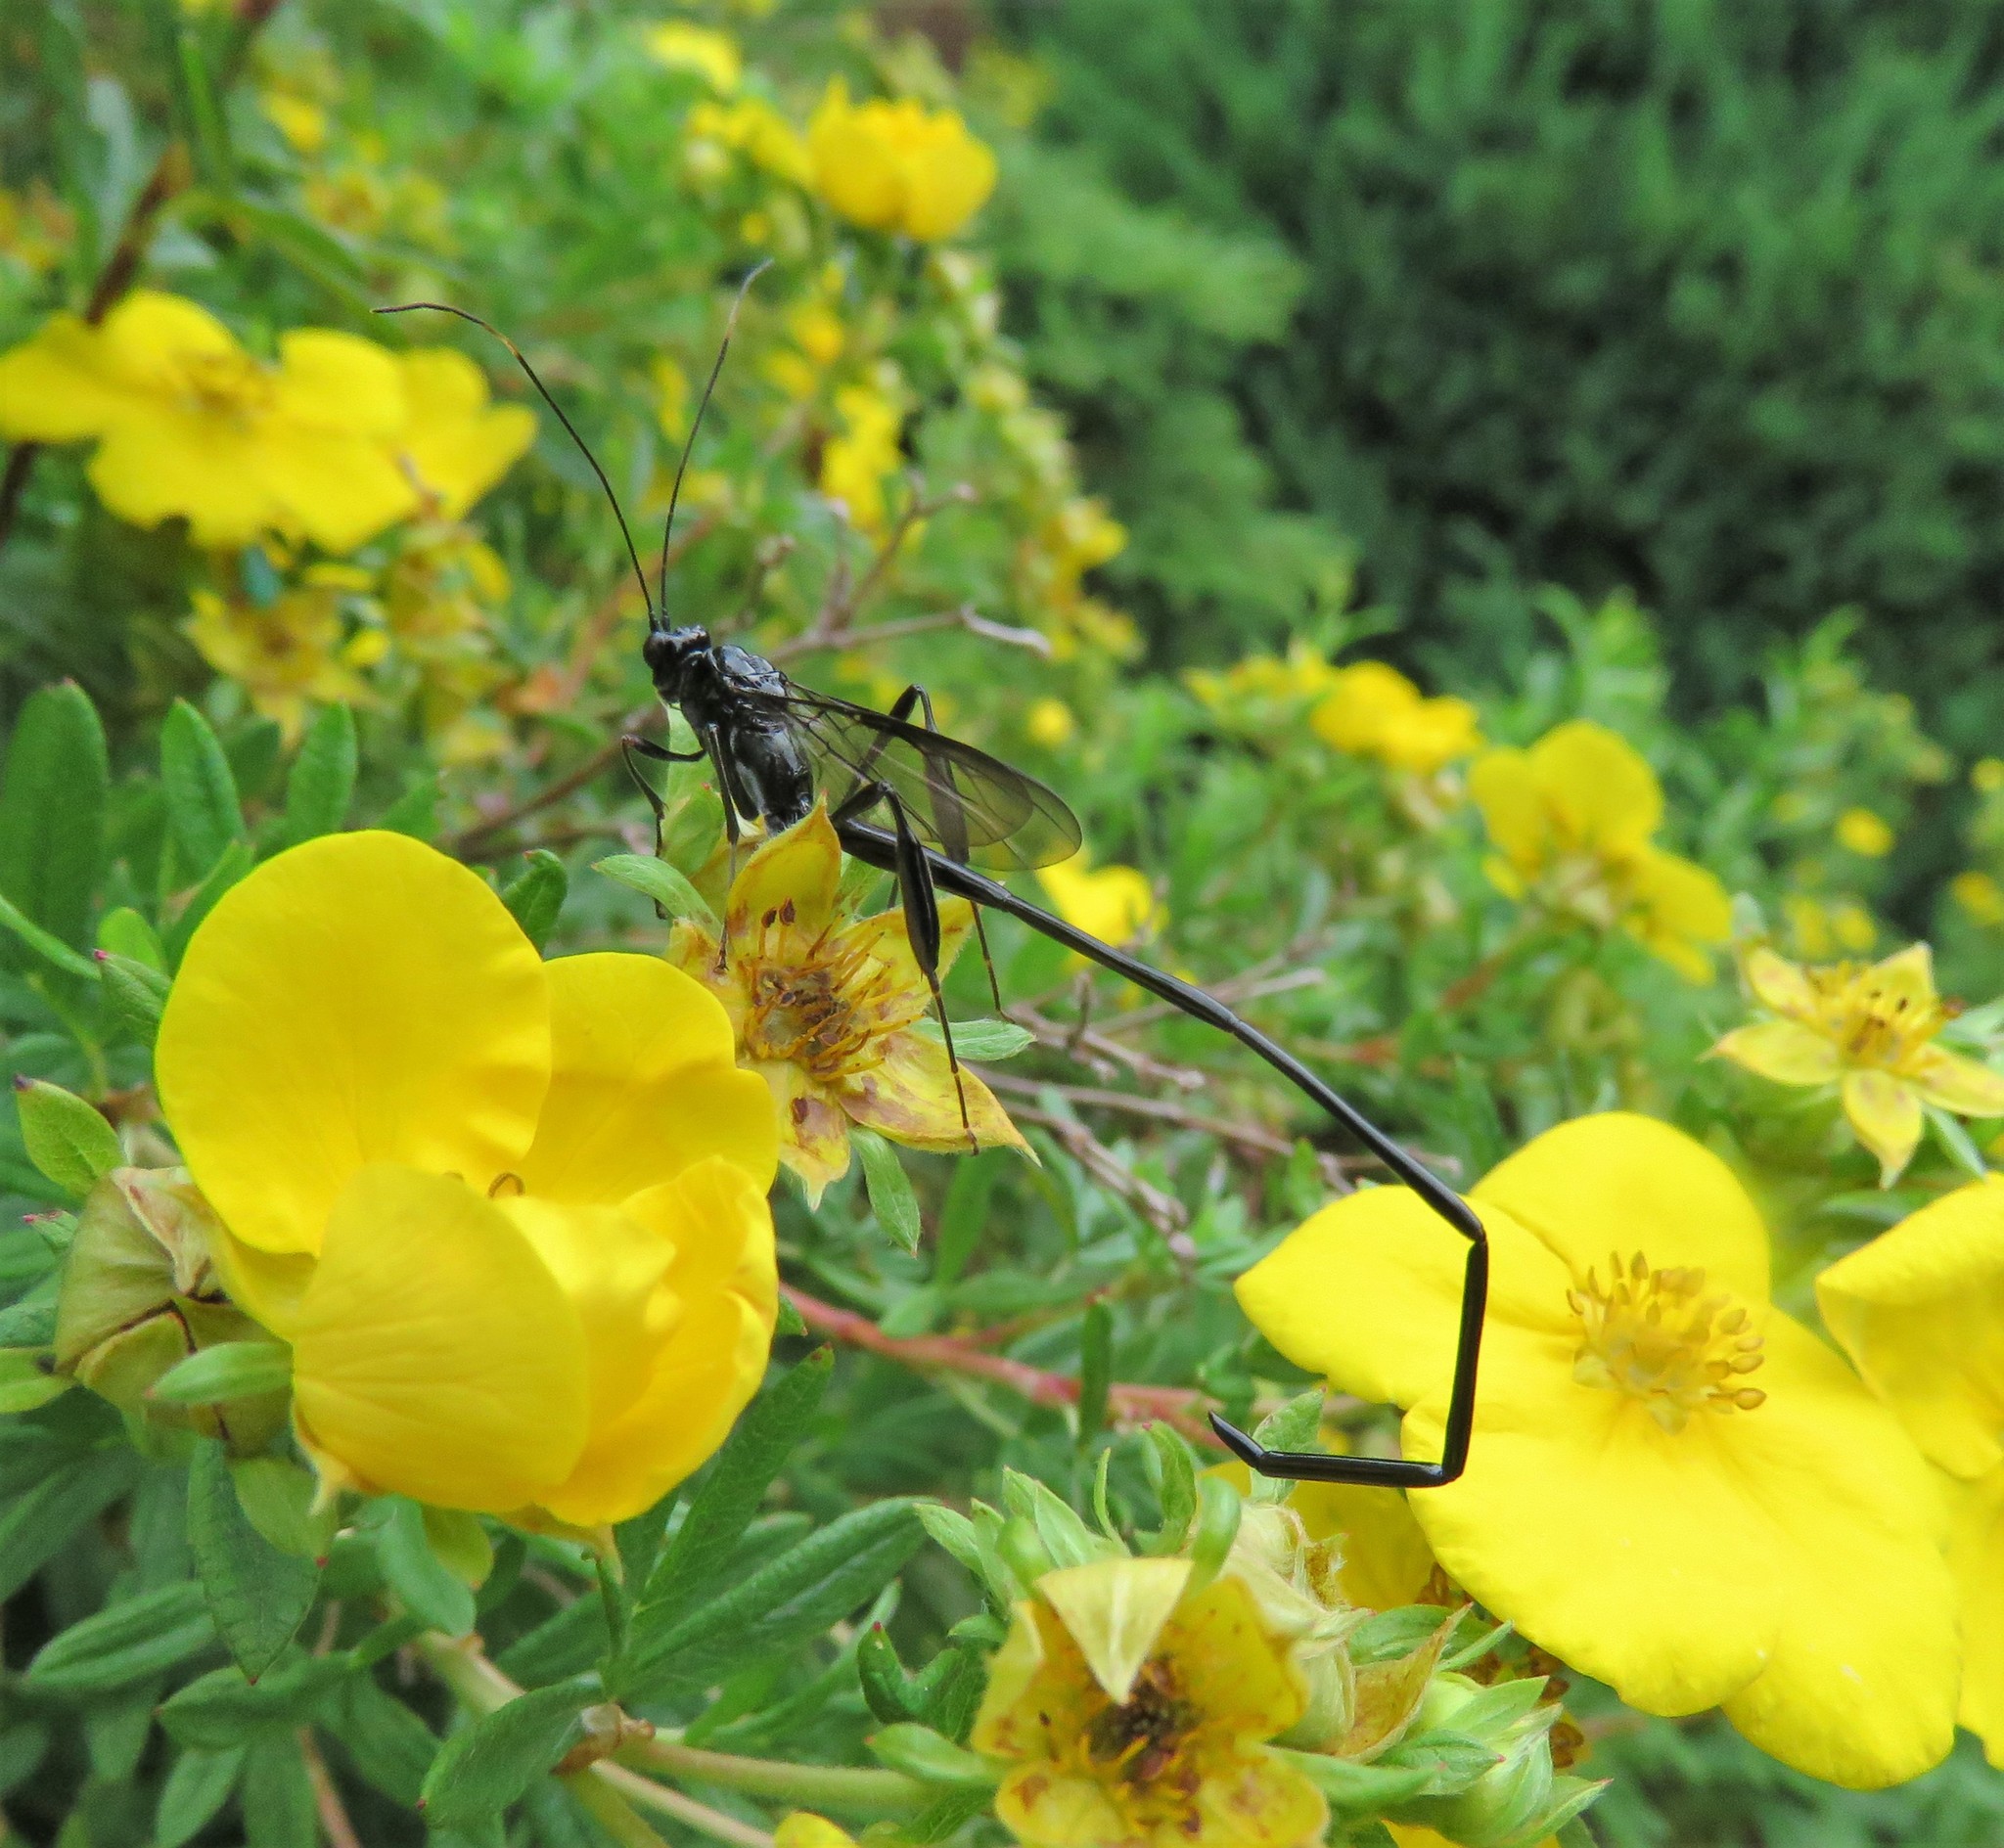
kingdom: Animalia
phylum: Arthropoda
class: Insecta
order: Hymenoptera
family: Pelecinidae
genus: Pelecinus
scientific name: Pelecinus polyturator
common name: American pelecinid wasp
